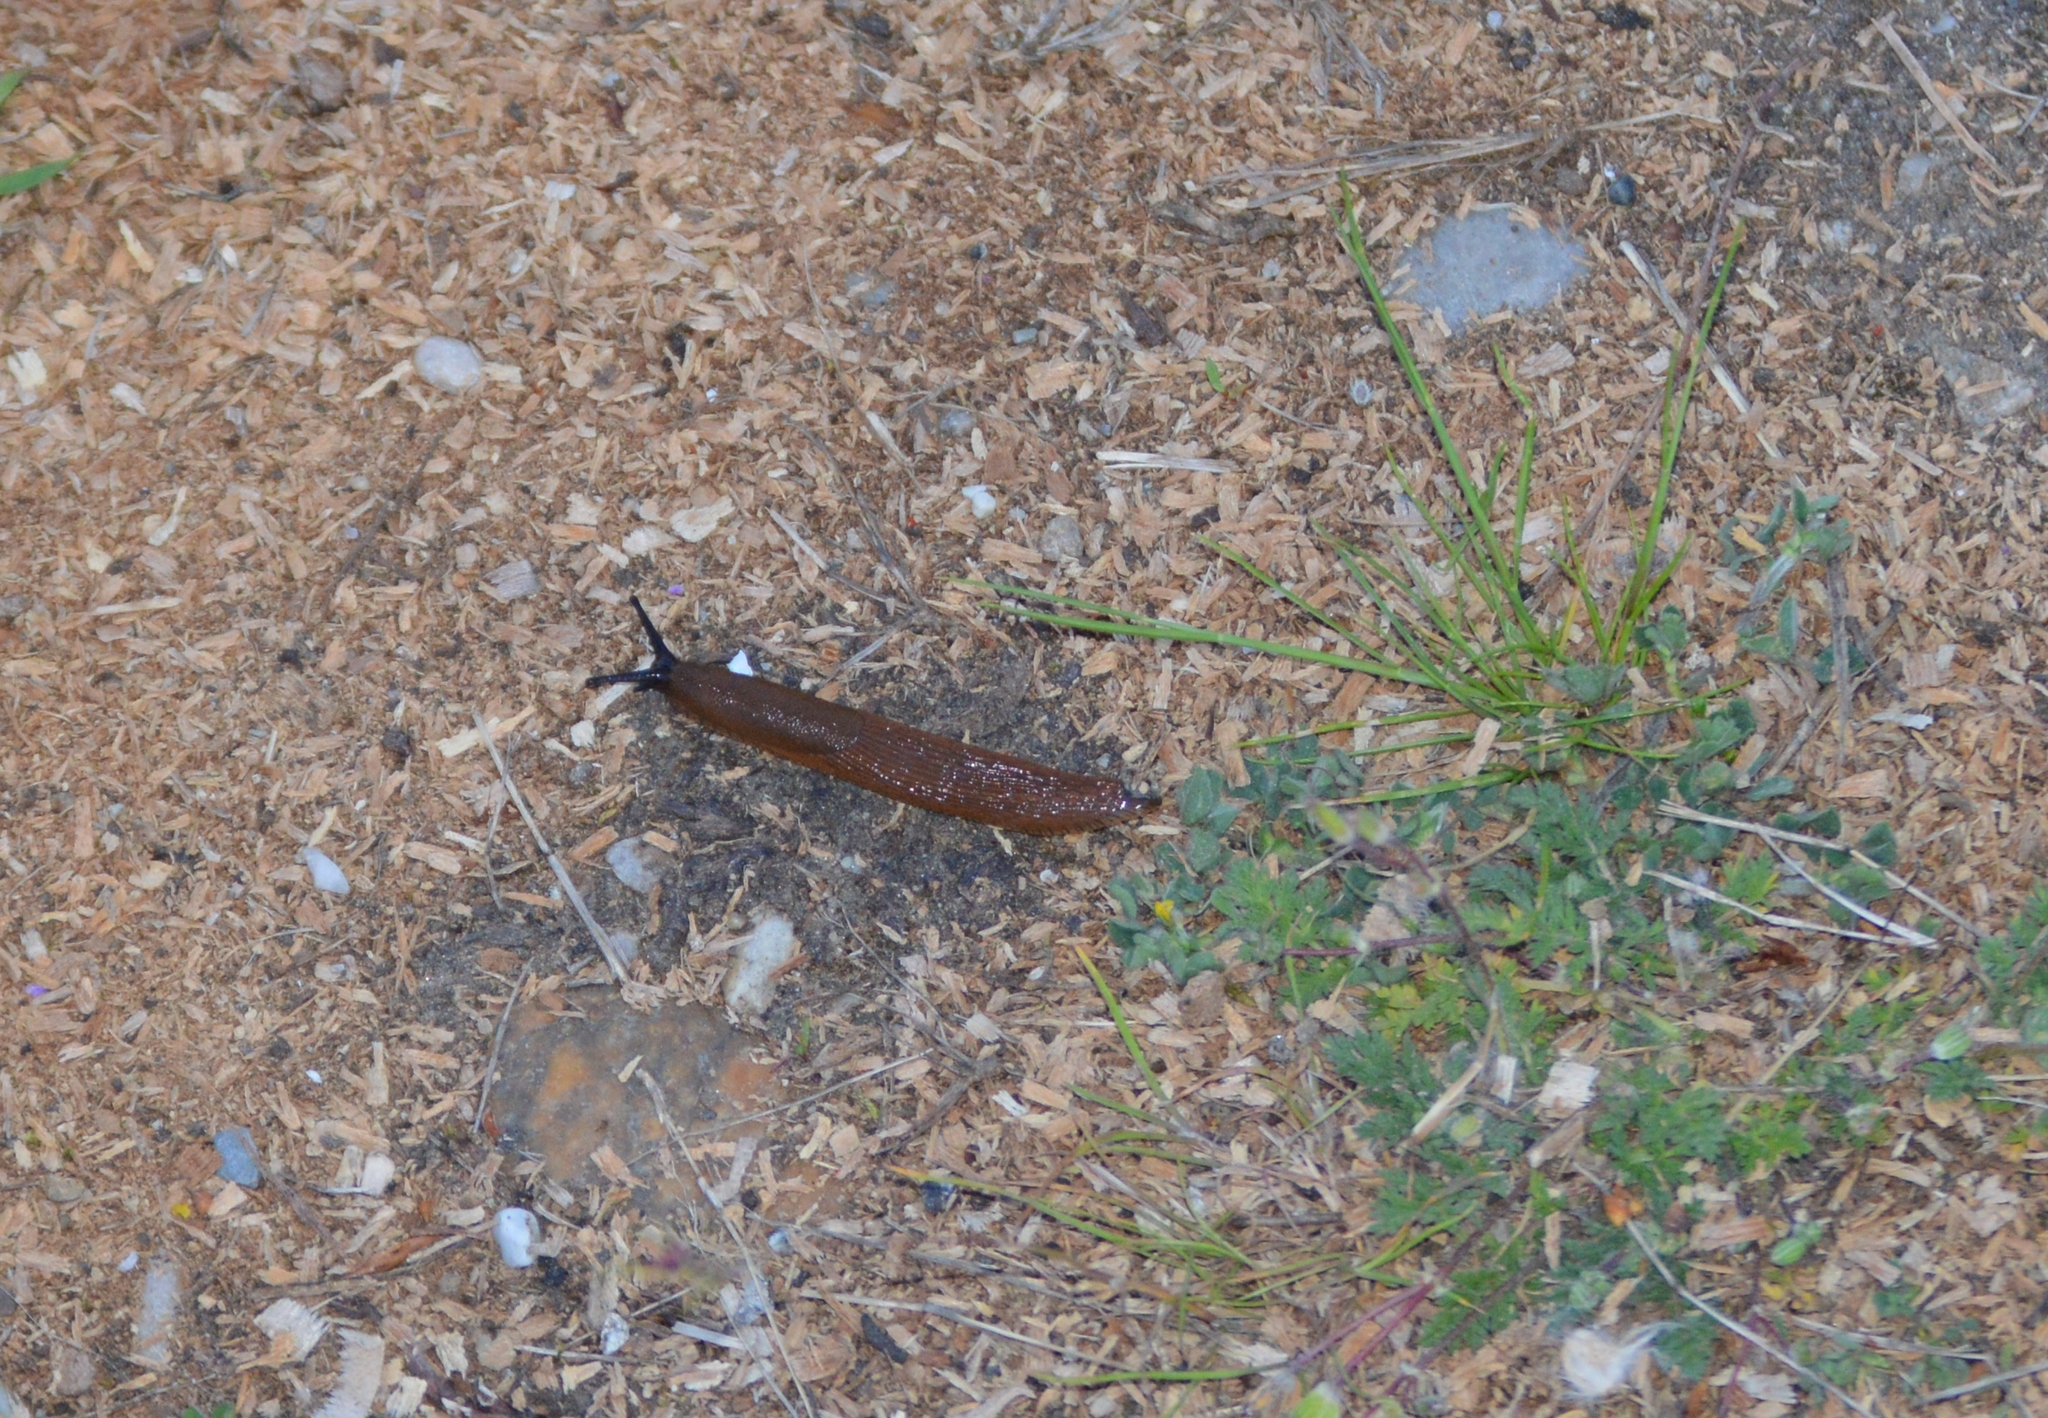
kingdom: Animalia
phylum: Mollusca
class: Gastropoda
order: Stylommatophora
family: Arionidae
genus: Arion
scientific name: Arion
